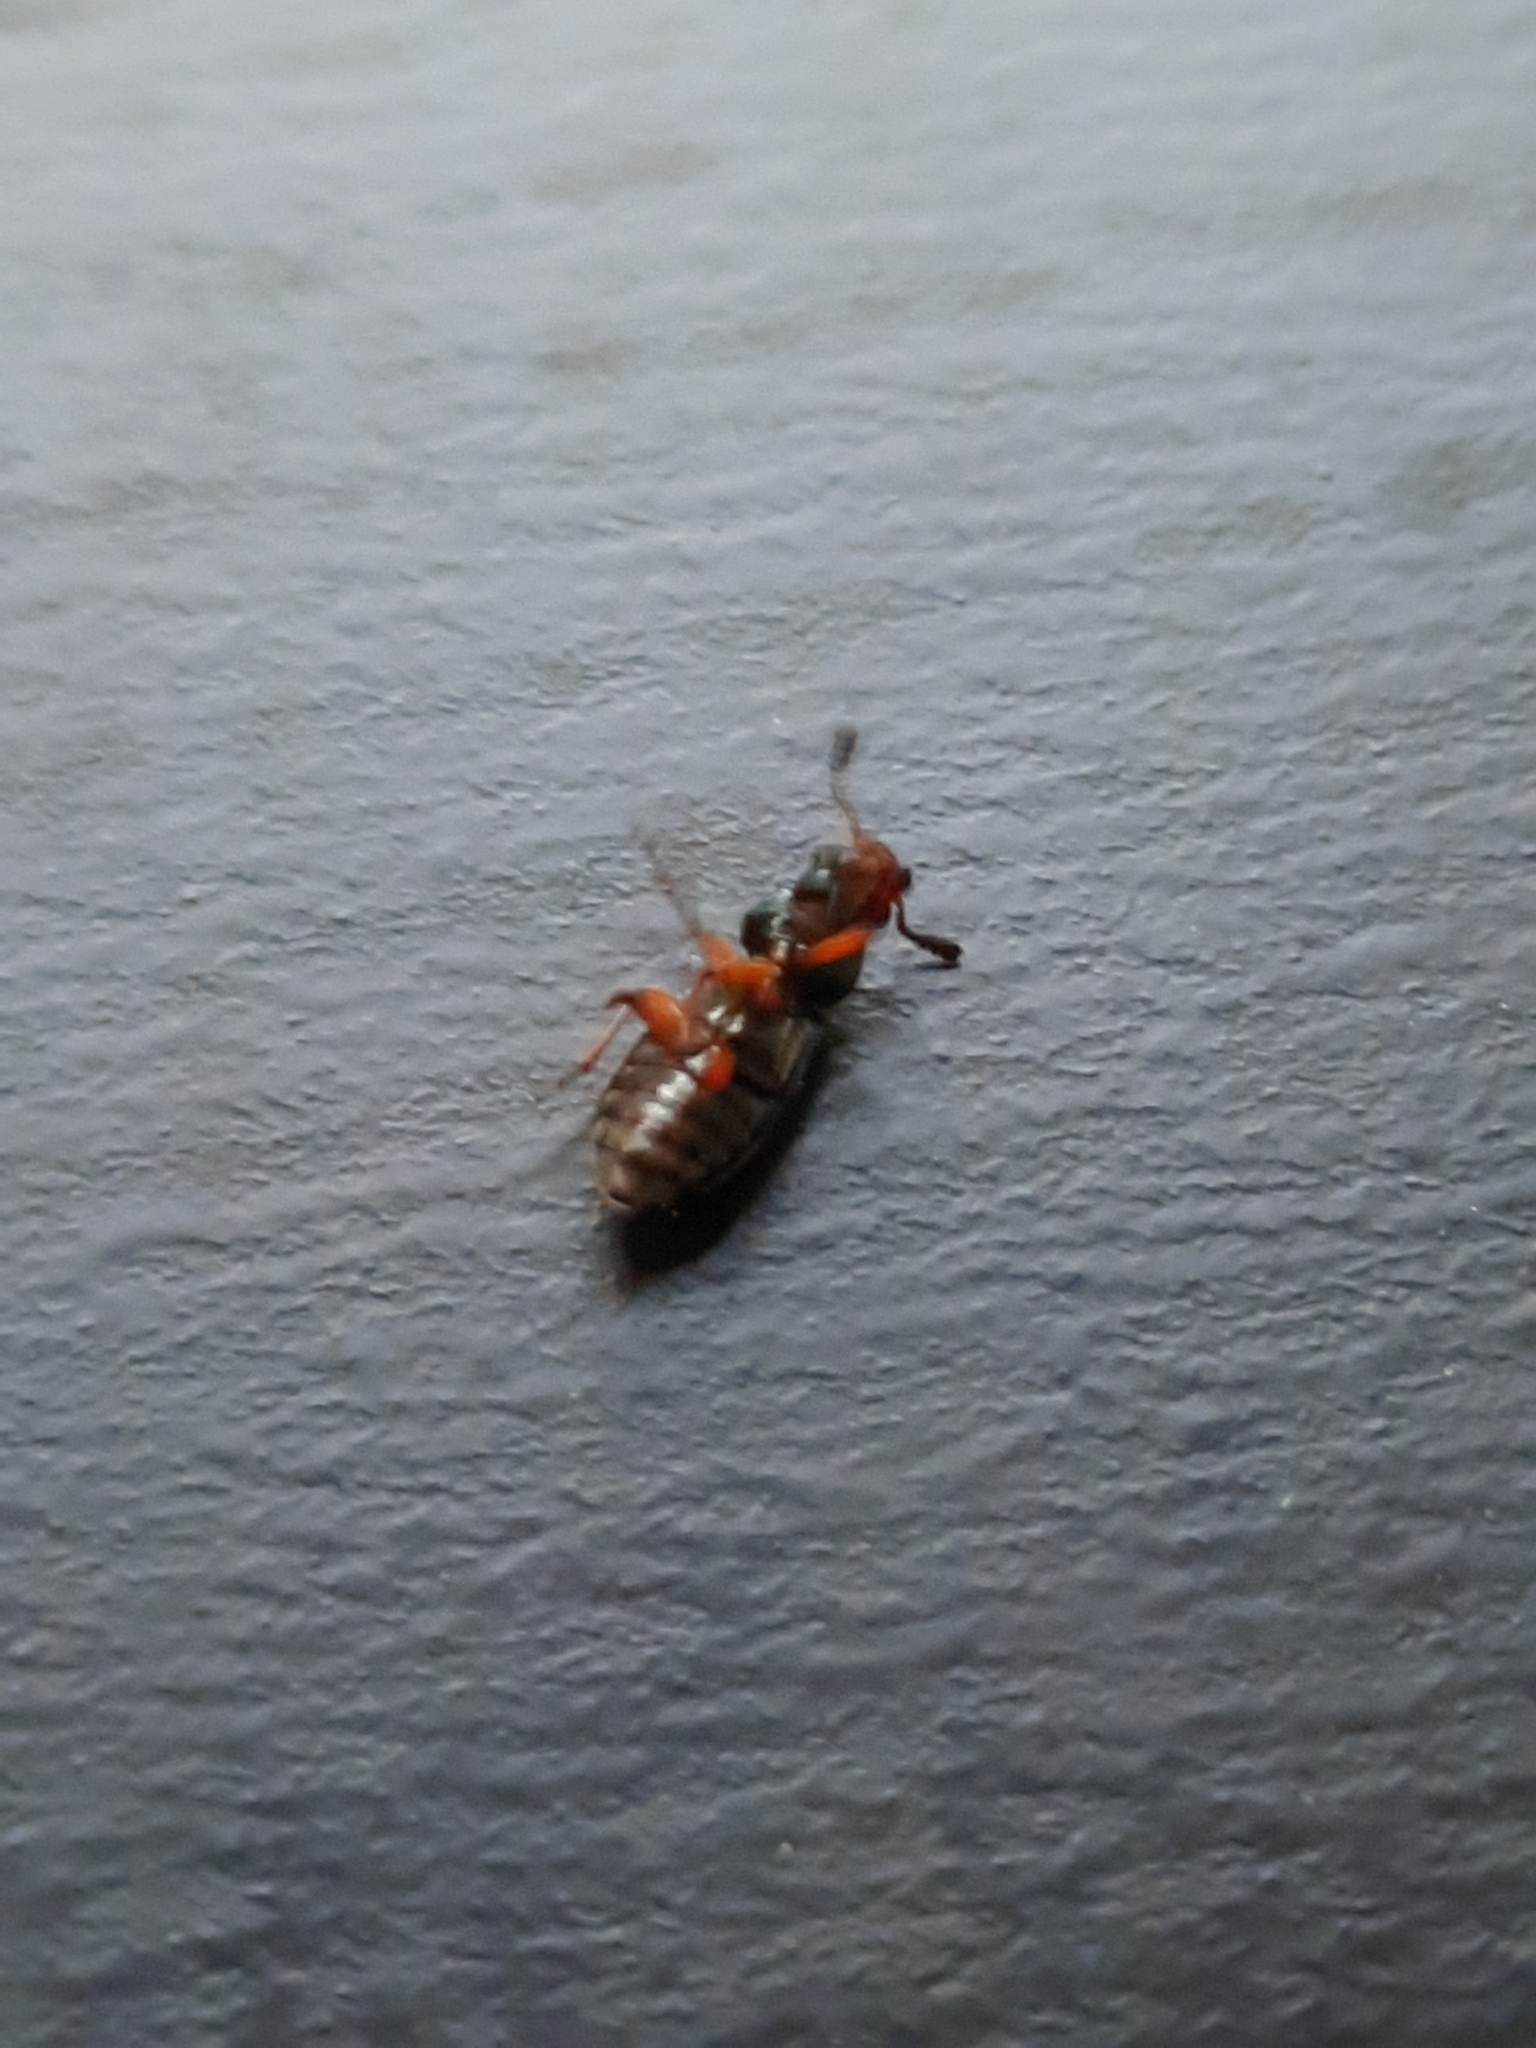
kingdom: Animalia
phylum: Arthropoda
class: Insecta
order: Coleoptera
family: Cleridae
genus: Necrobia
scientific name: Necrobia rufipes
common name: Red-legged ham beetle
